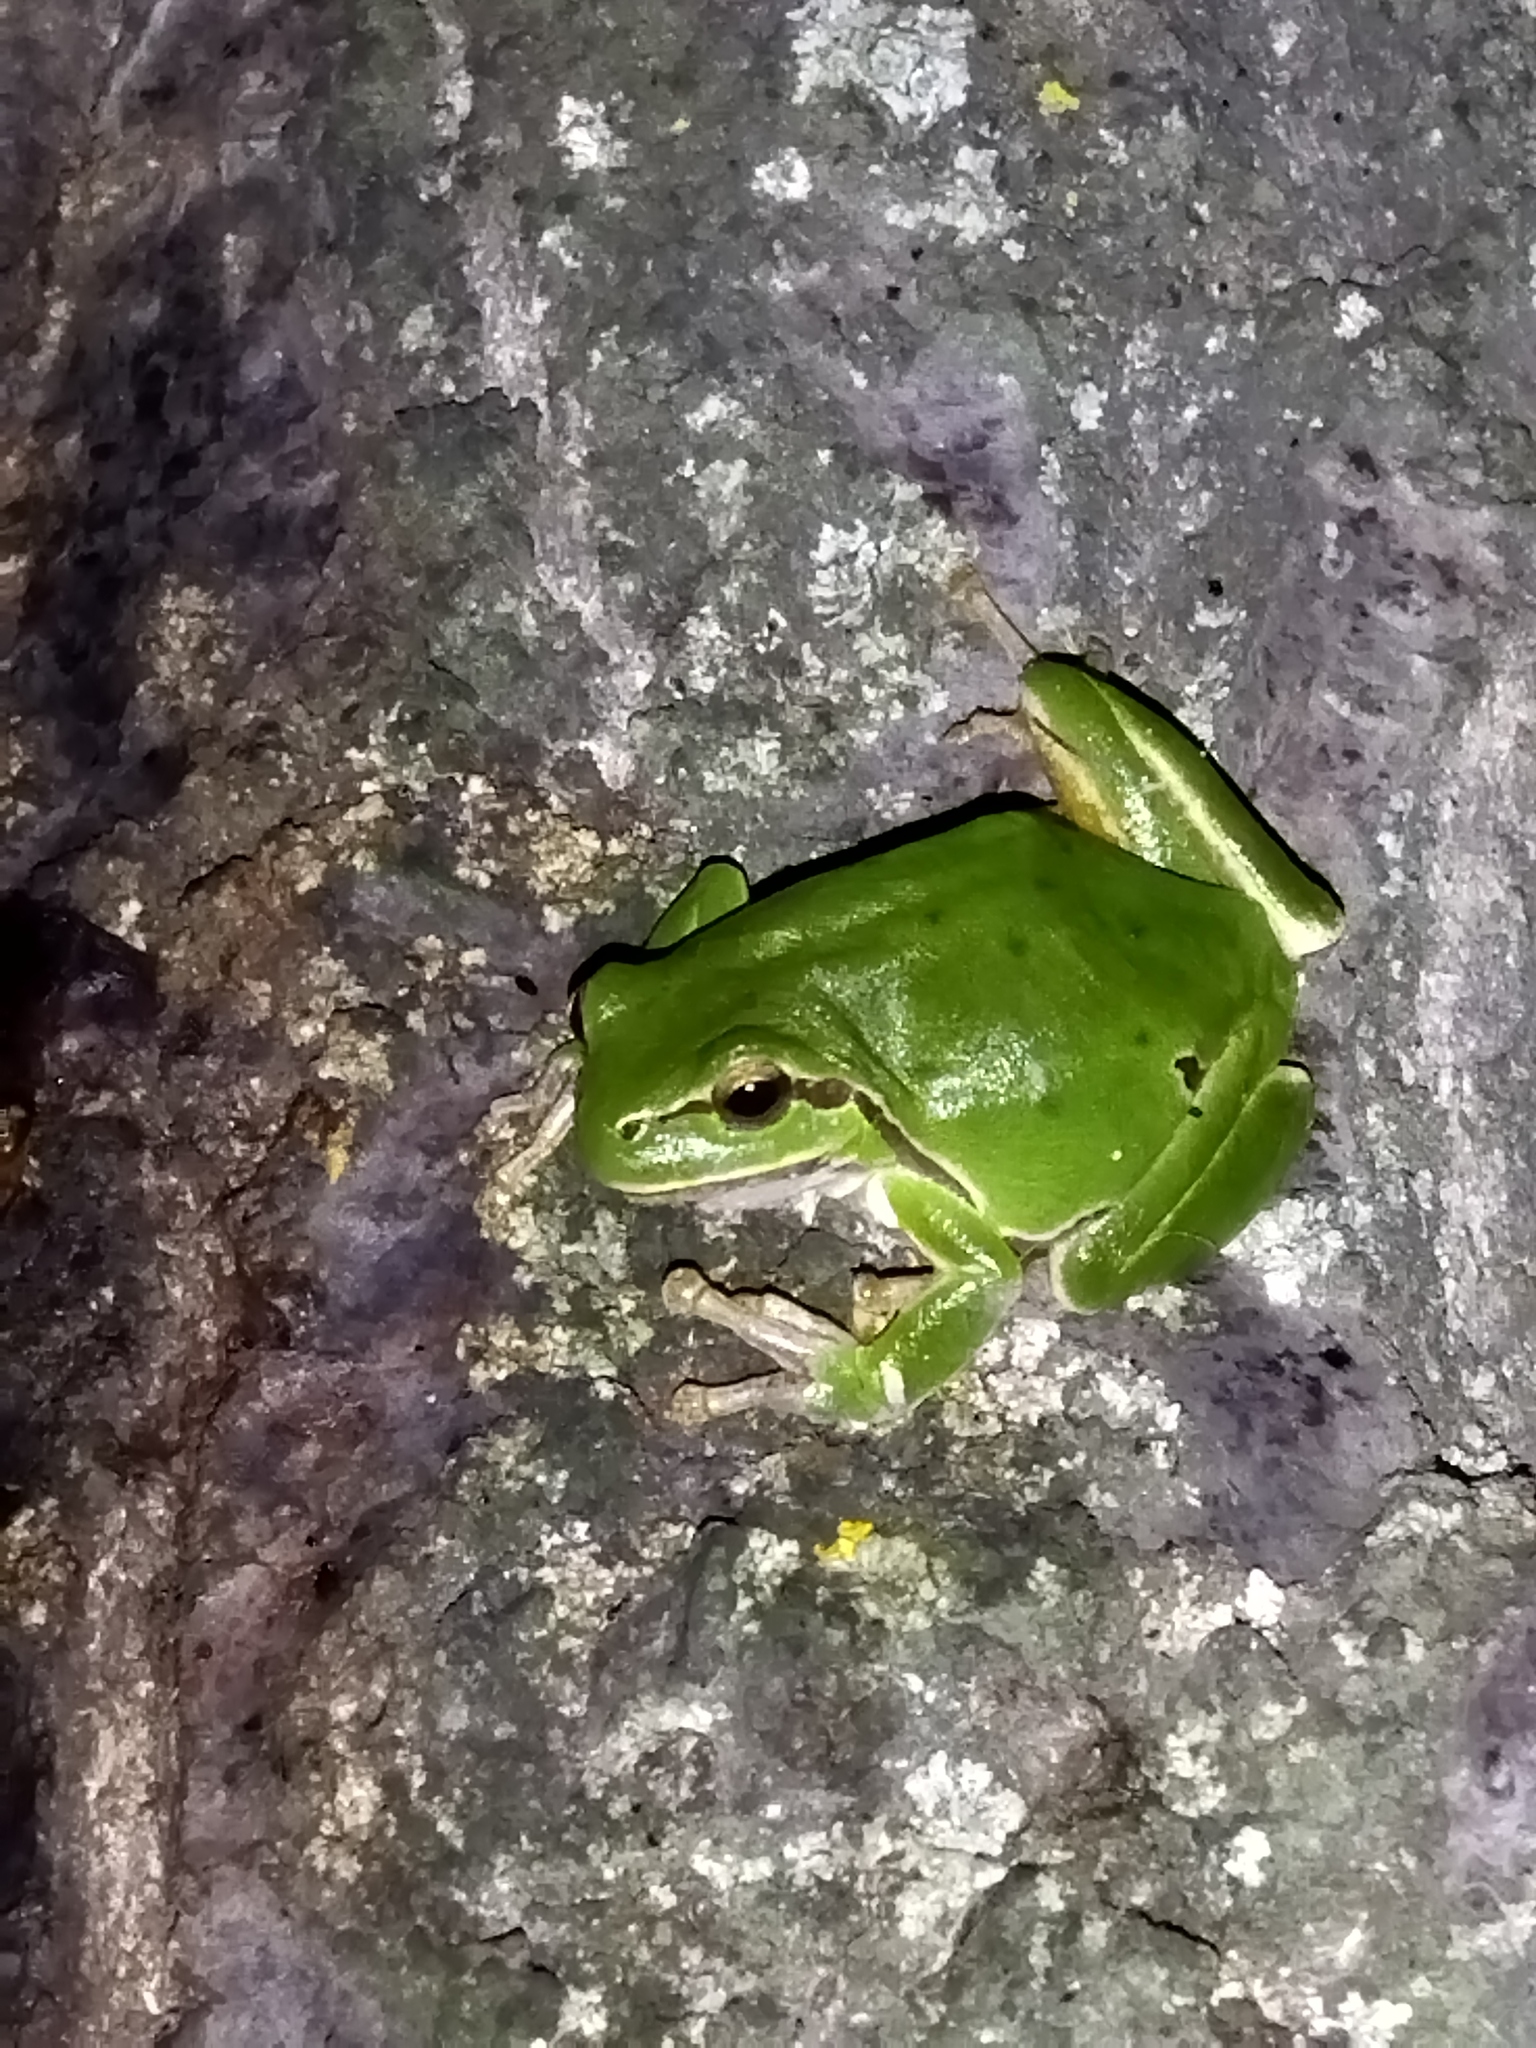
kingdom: Animalia
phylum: Chordata
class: Amphibia
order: Anura
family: Hylidae
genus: Hyla
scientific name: Hyla orientalis
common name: Caucasian treefrog
